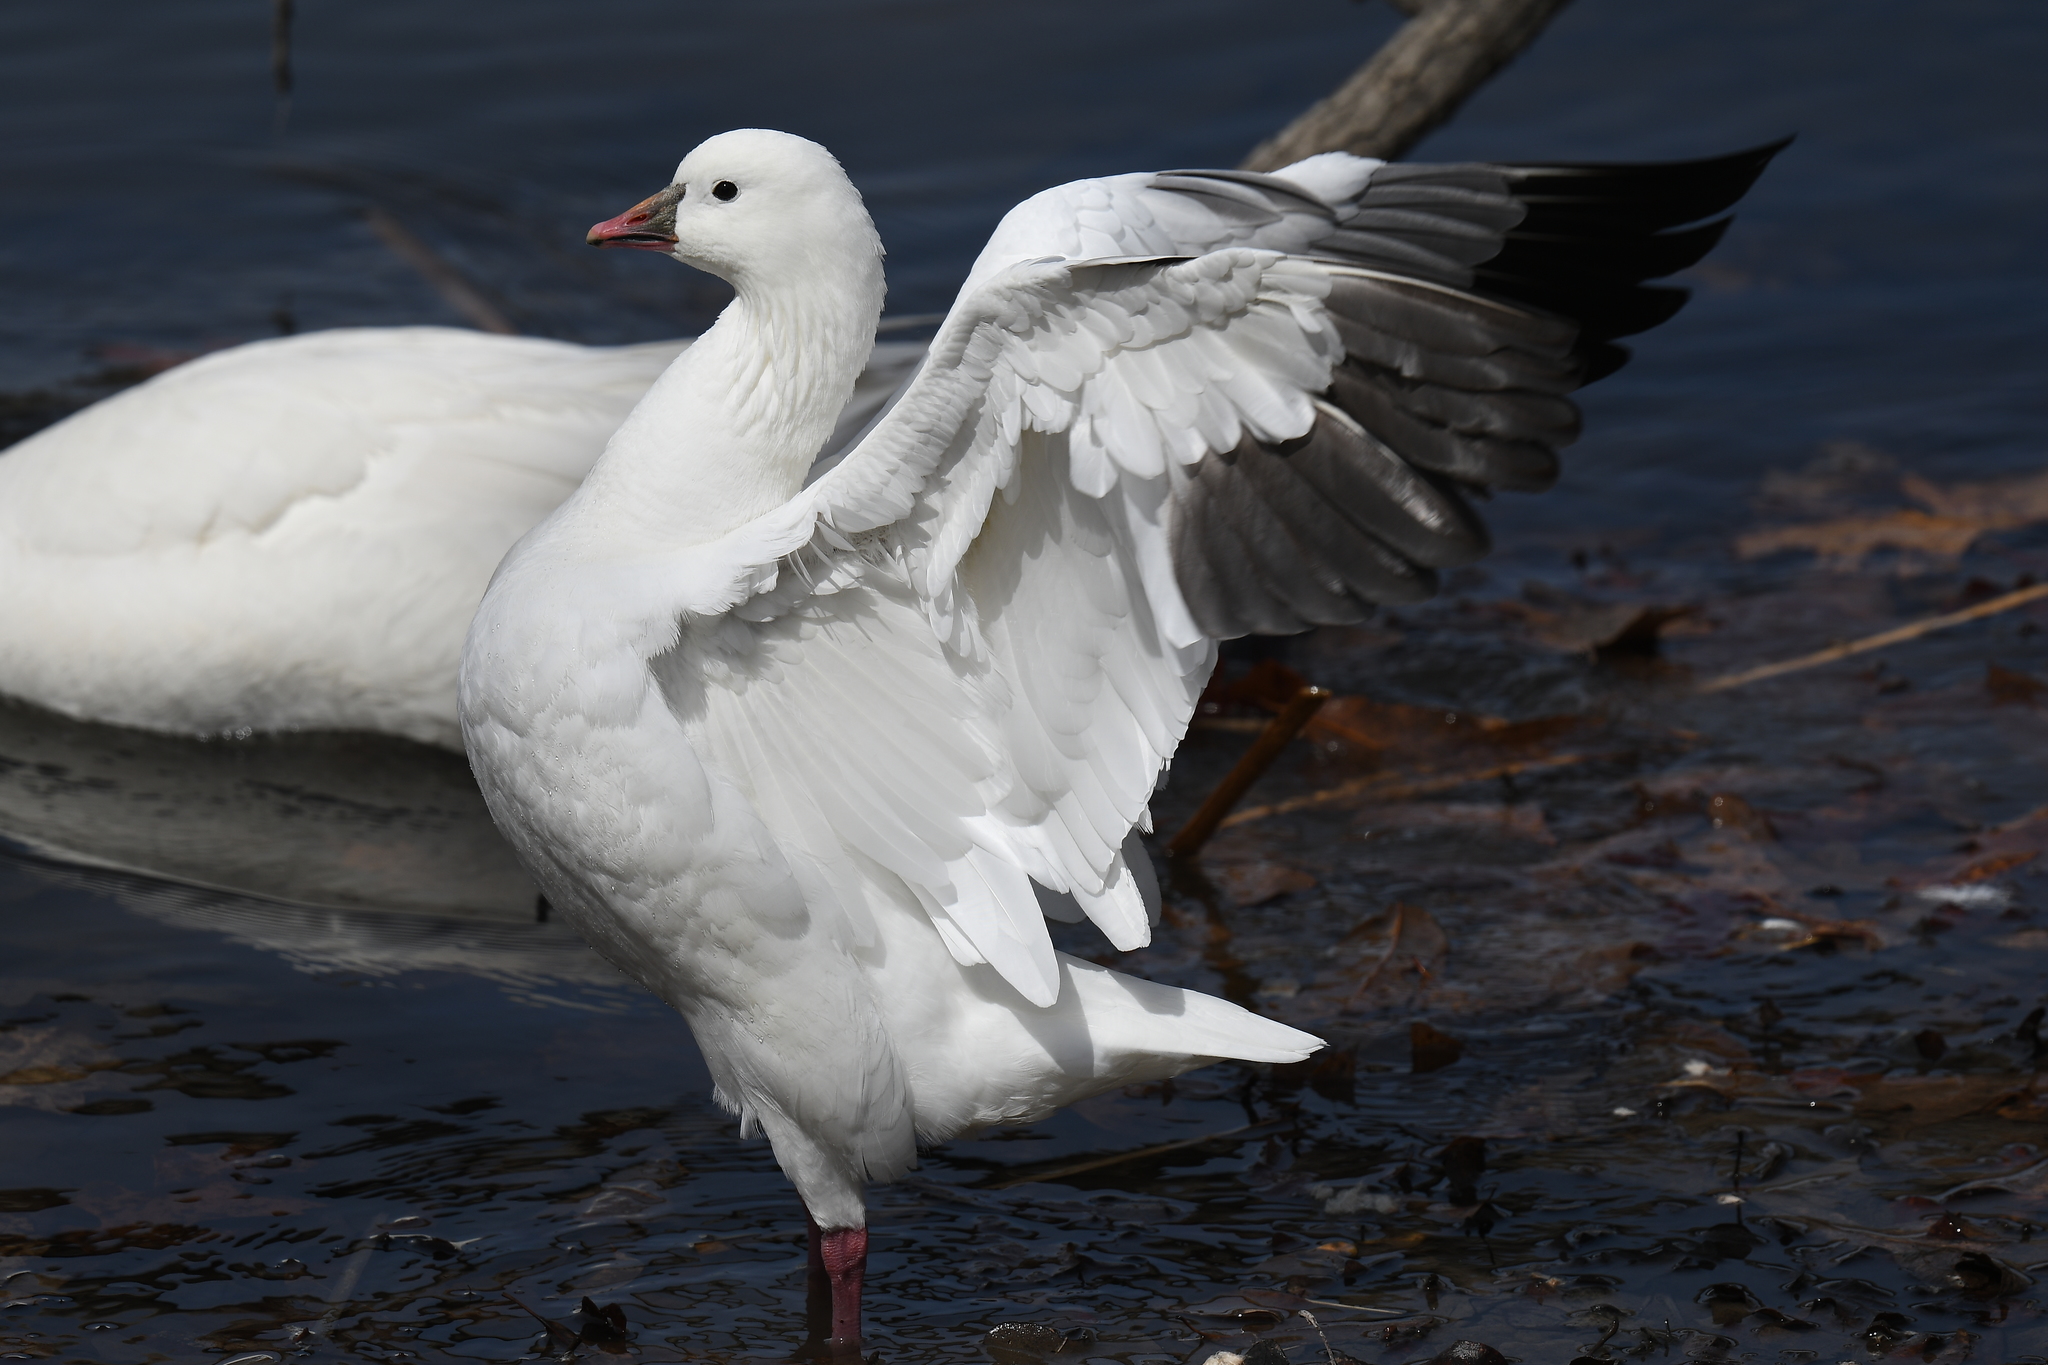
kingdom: Animalia
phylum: Chordata
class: Aves
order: Anseriformes
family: Anatidae
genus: Anser
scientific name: Anser rossii
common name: Ross's goose
